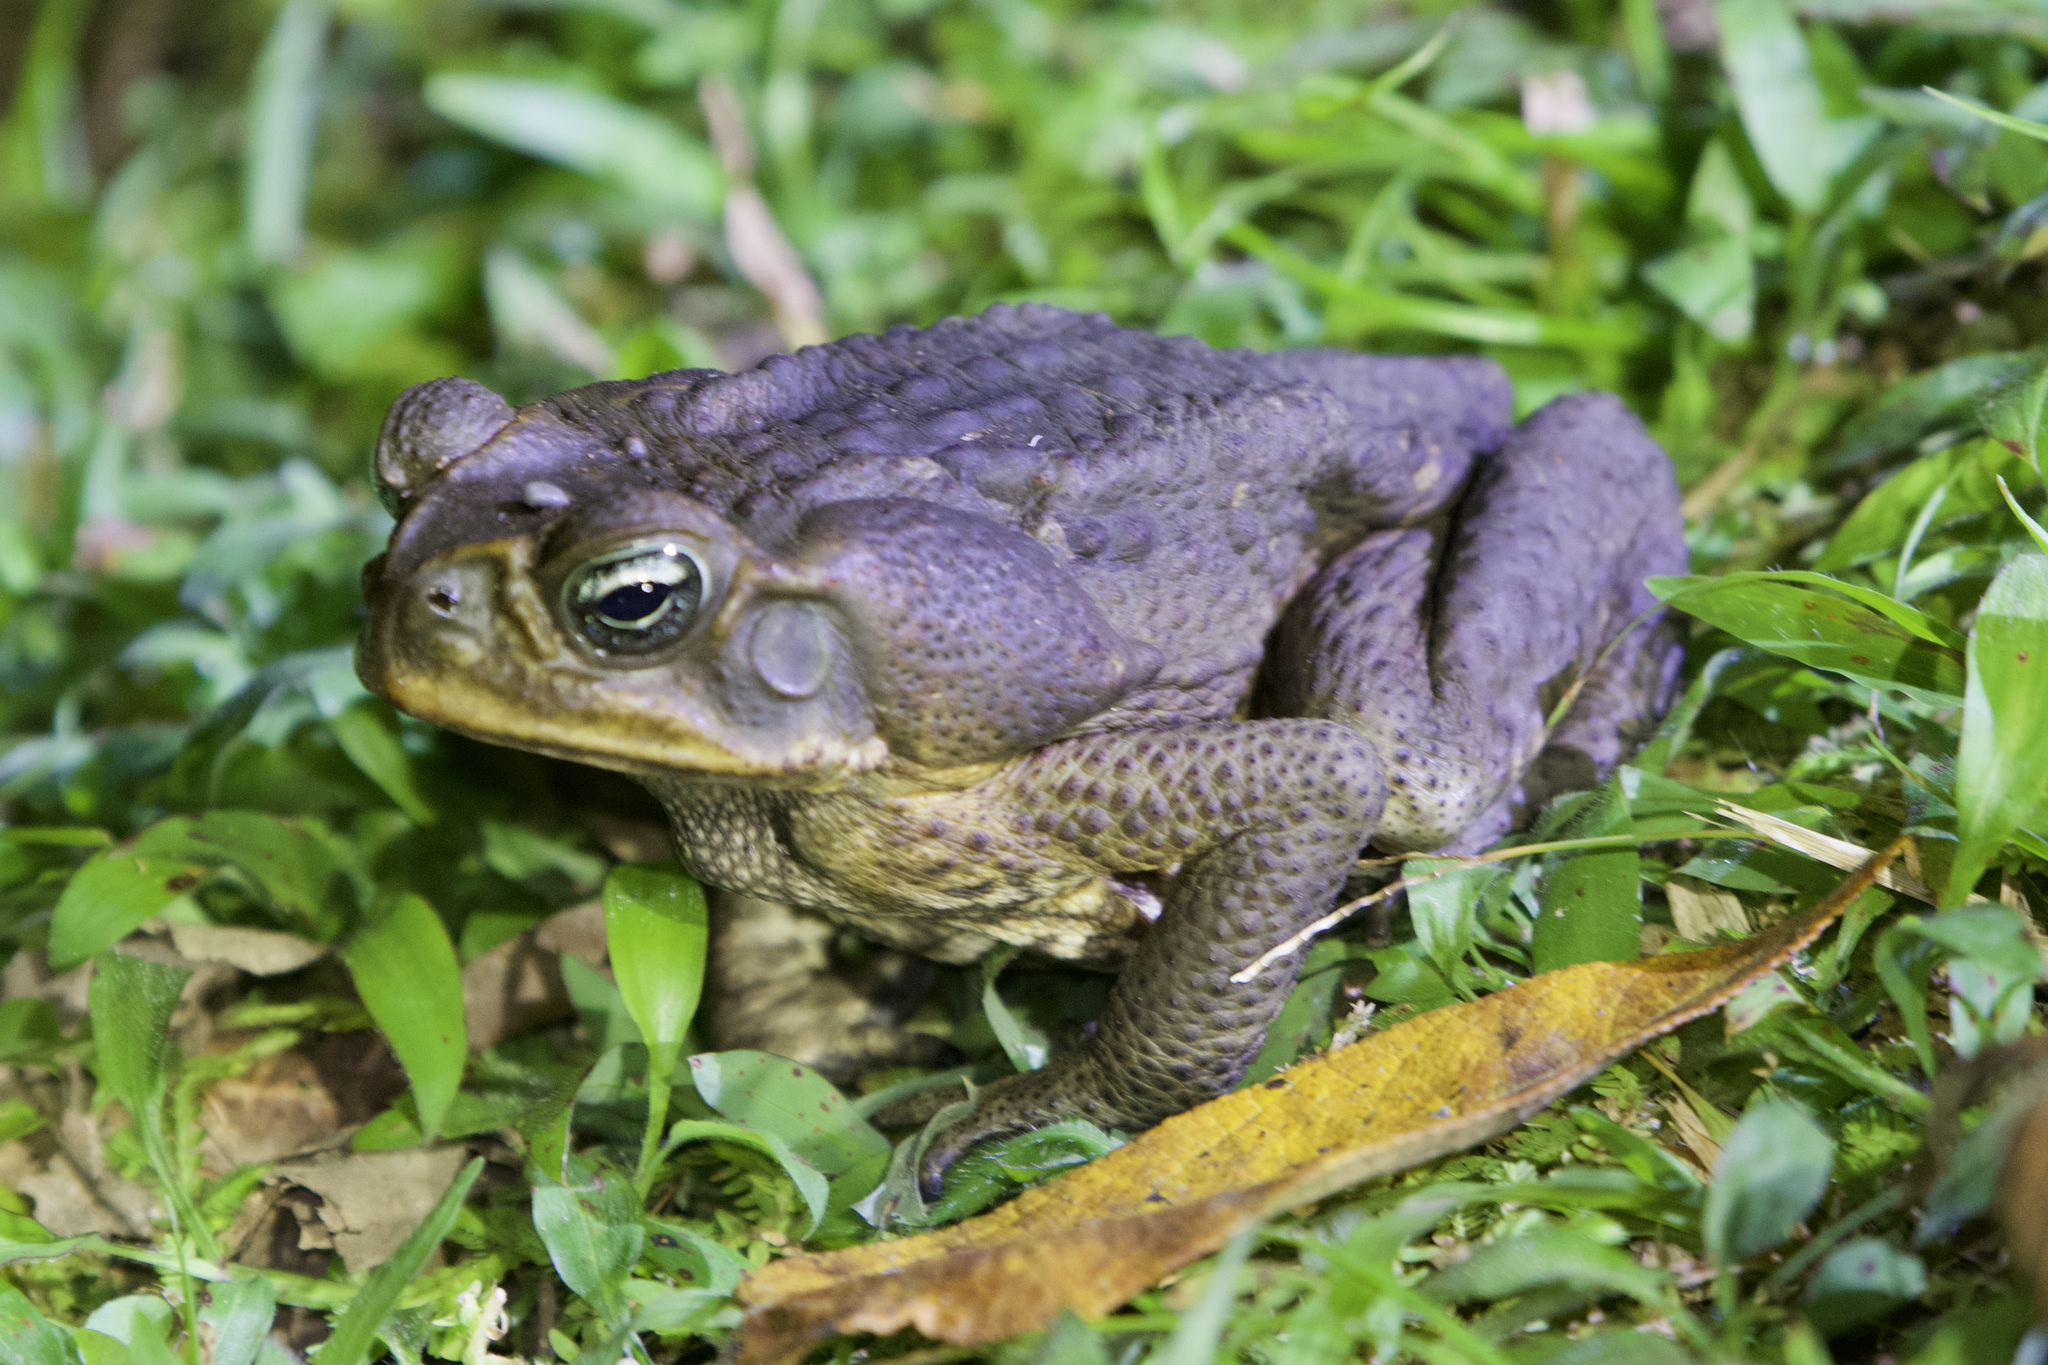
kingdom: Animalia
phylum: Chordata
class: Amphibia
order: Anura
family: Bufonidae
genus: Rhinella
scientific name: Rhinella horribilis
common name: Mesoamerican cane toad
